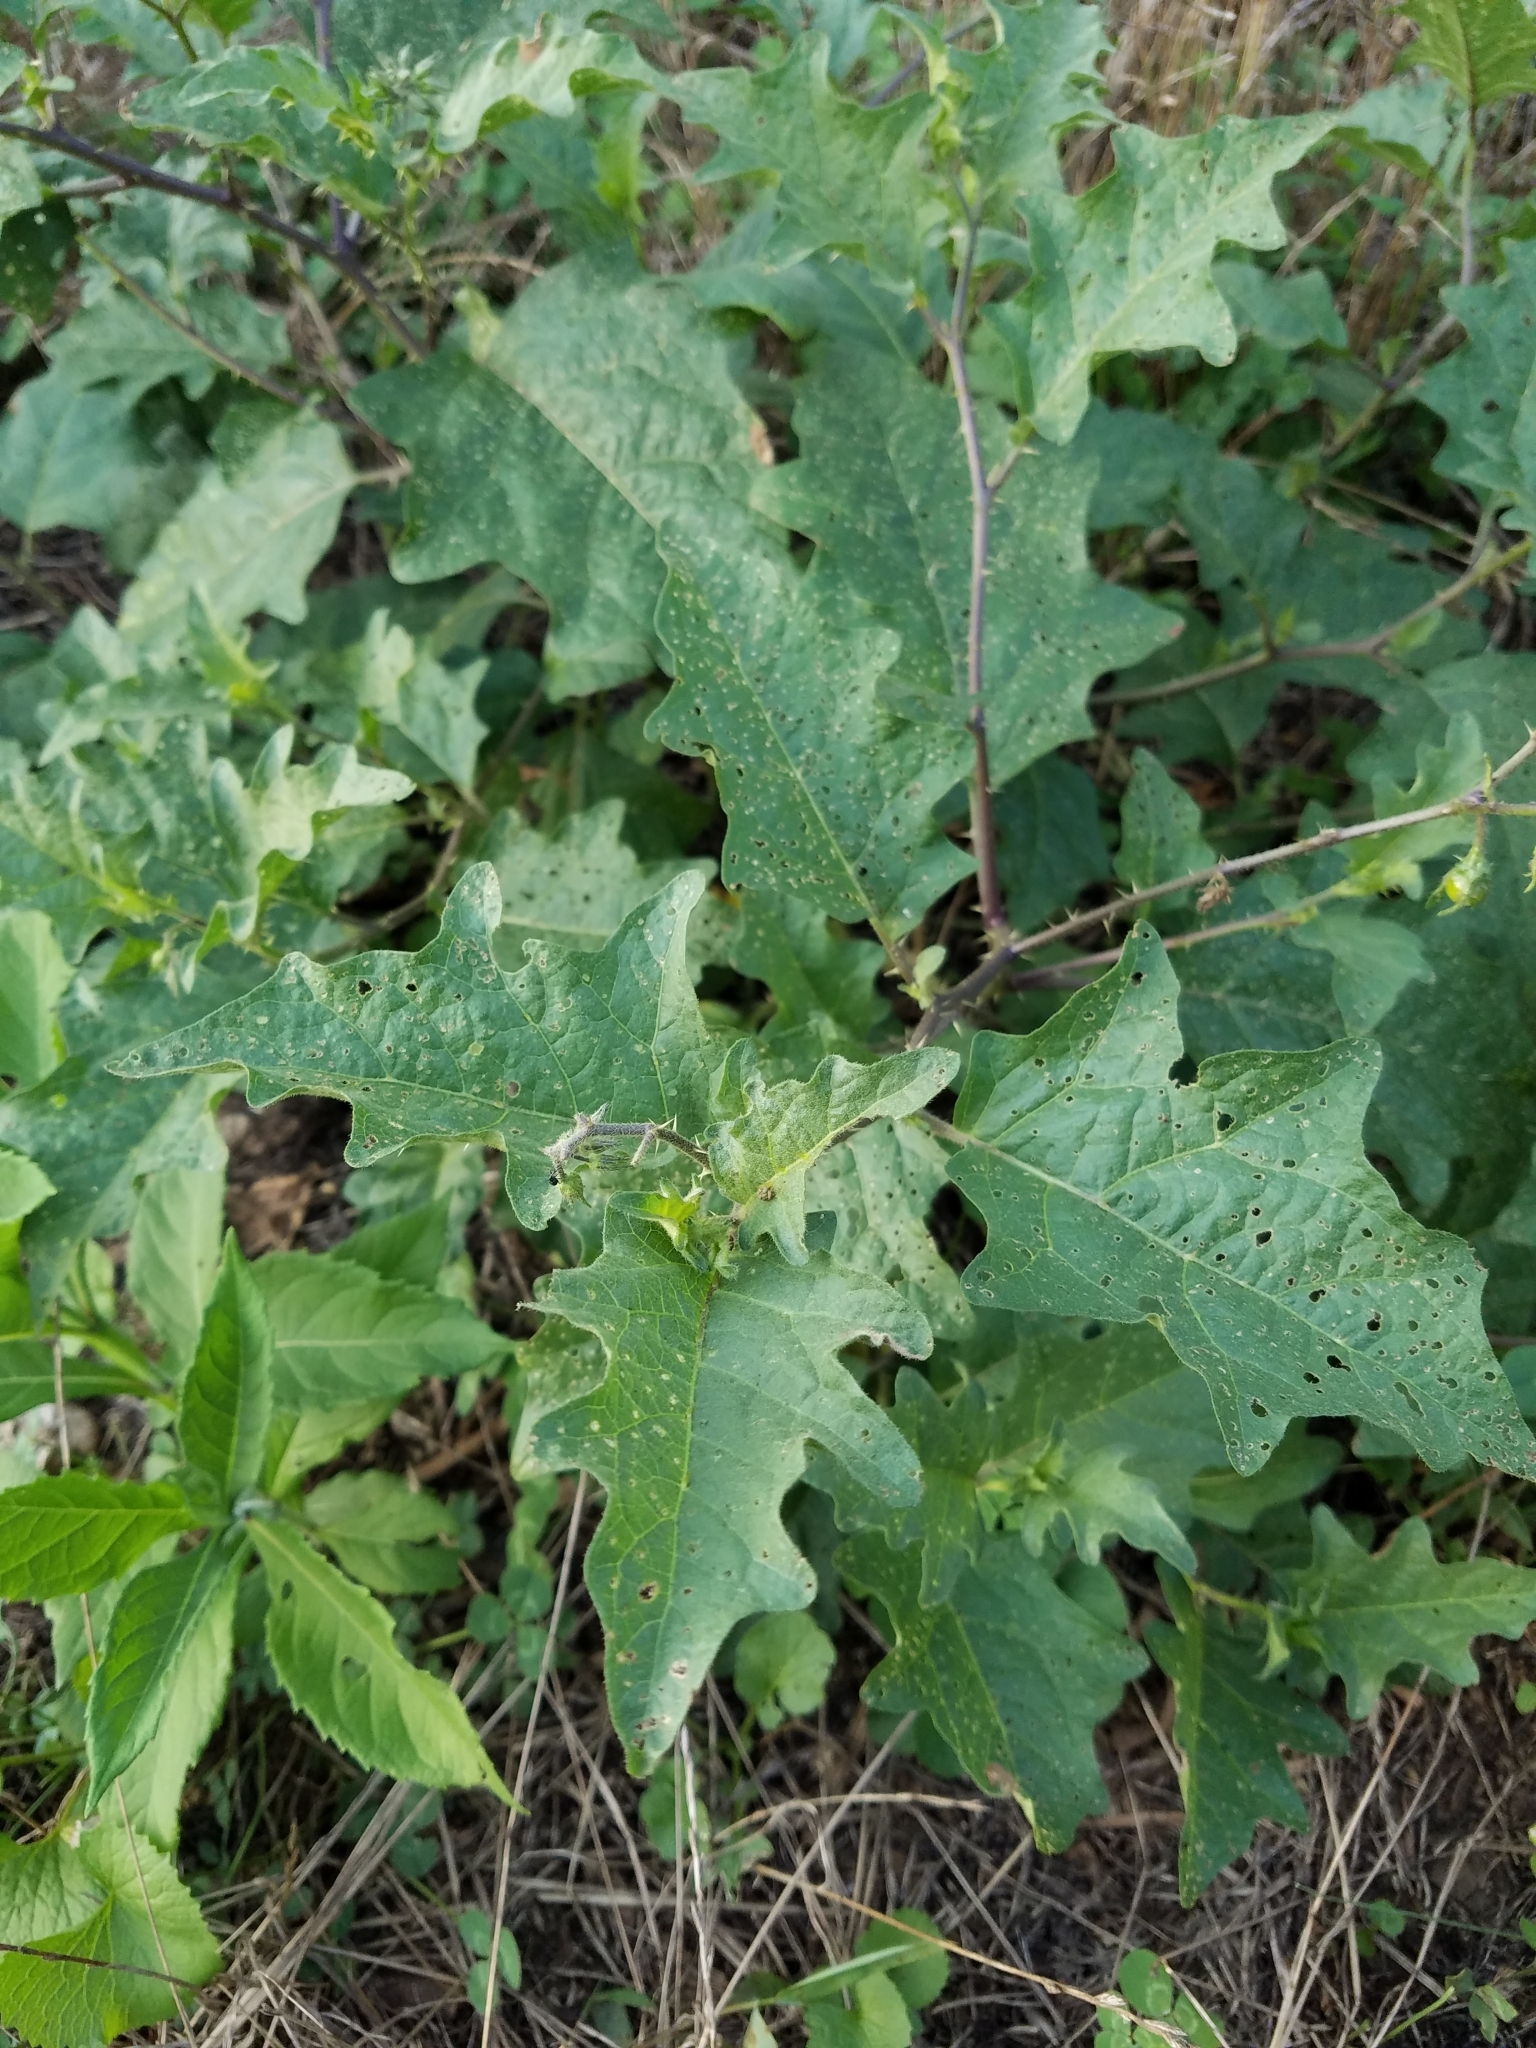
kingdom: Plantae
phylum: Tracheophyta
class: Magnoliopsida
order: Solanales
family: Solanaceae
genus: Solanum
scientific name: Solanum carolinense
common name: Horse-nettle
